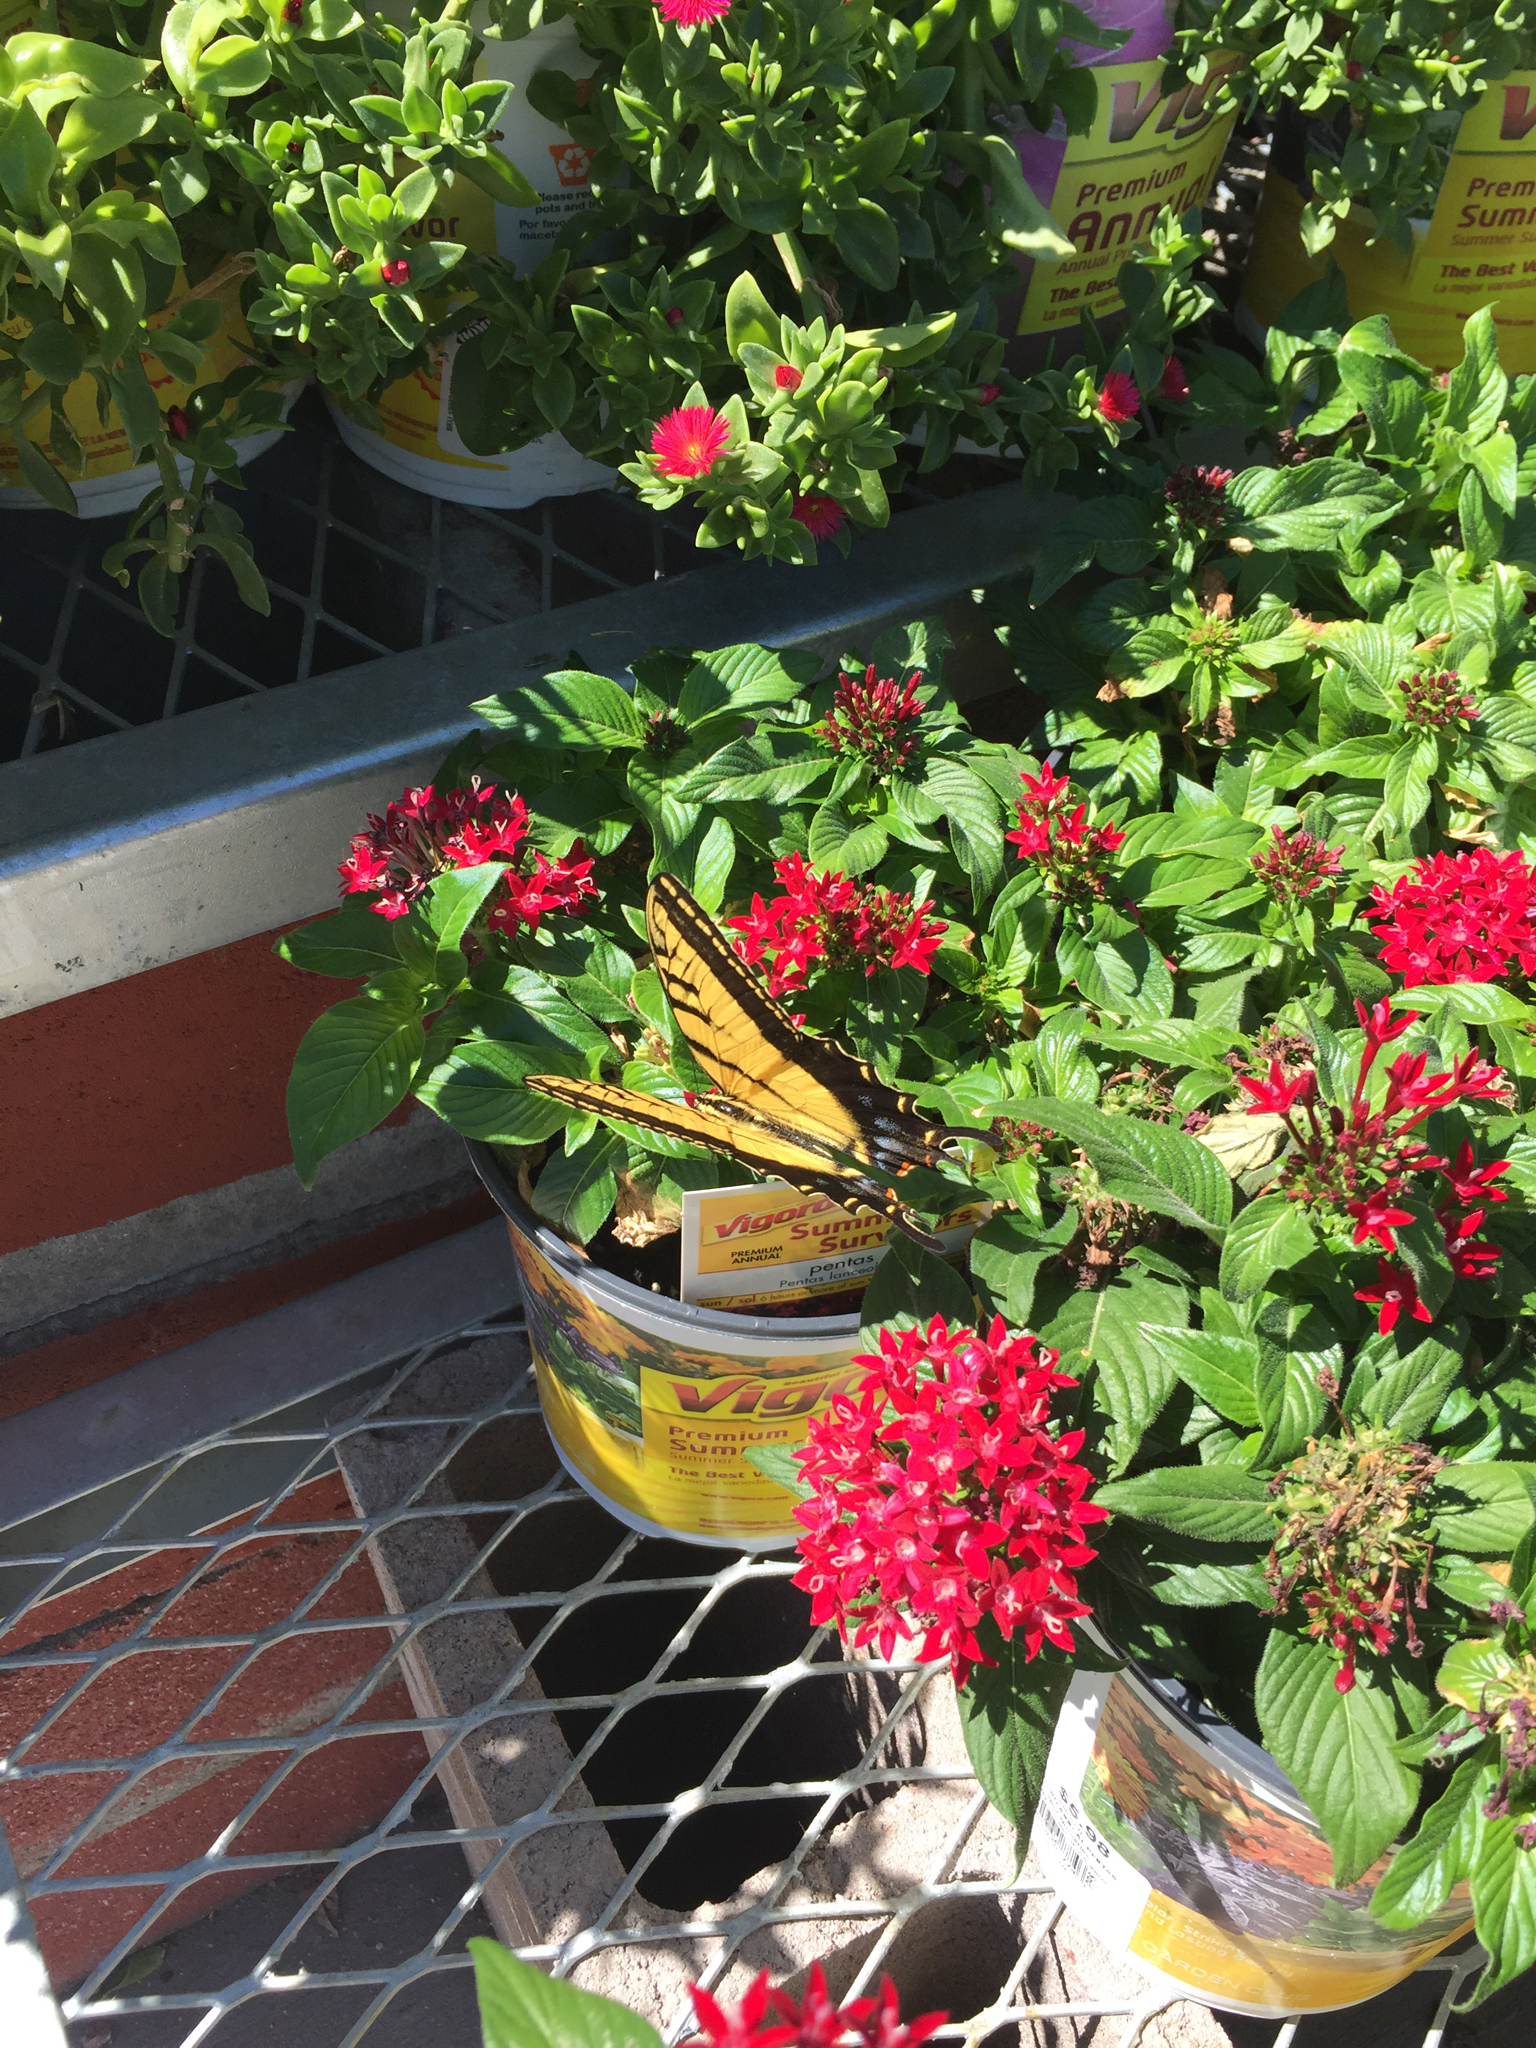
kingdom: Animalia
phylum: Arthropoda
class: Insecta
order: Lepidoptera
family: Papilionidae
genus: Papilio
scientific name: Papilio multicaudata
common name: Two-tailed tiger swallowtail
